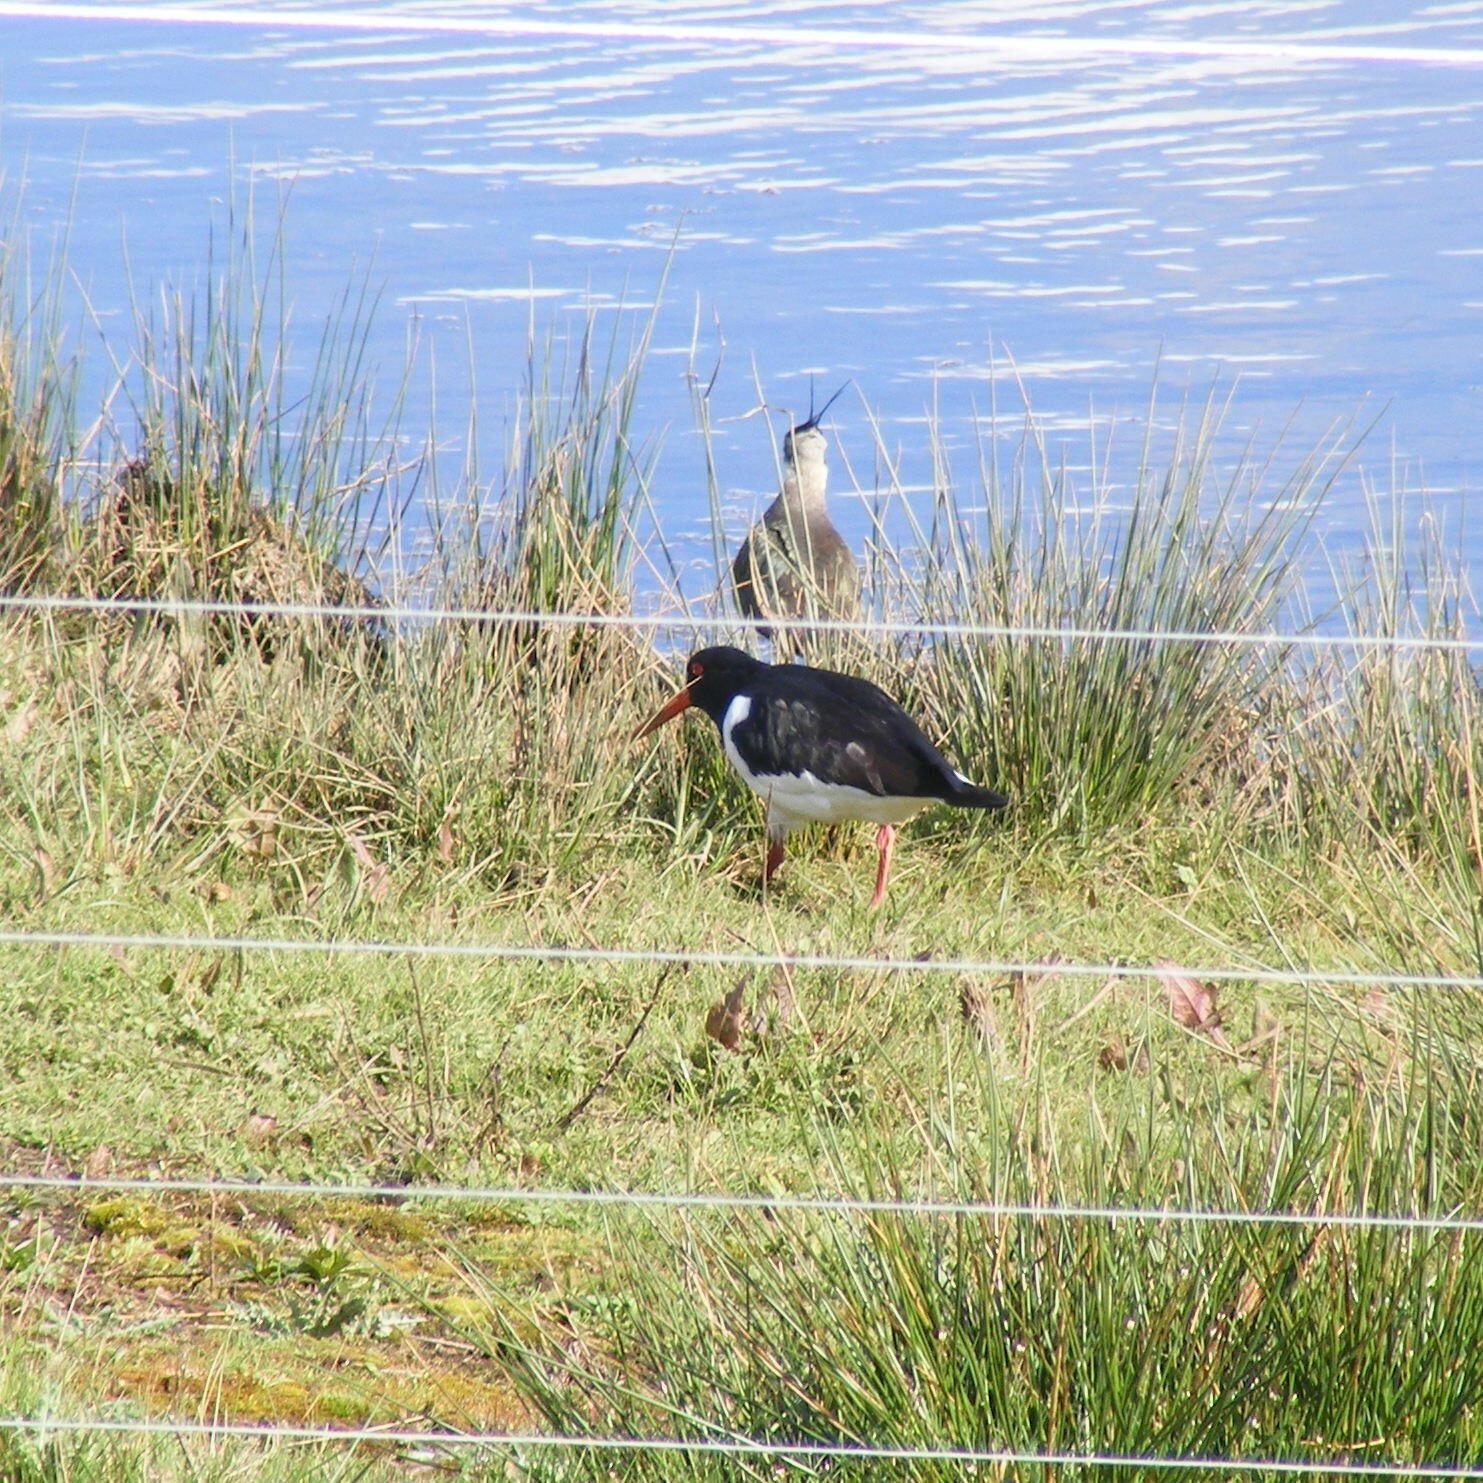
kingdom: Animalia
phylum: Chordata
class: Aves
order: Charadriiformes
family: Haematopodidae
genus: Haematopus
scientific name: Haematopus ostralegus
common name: Eurasian oystercatcher
